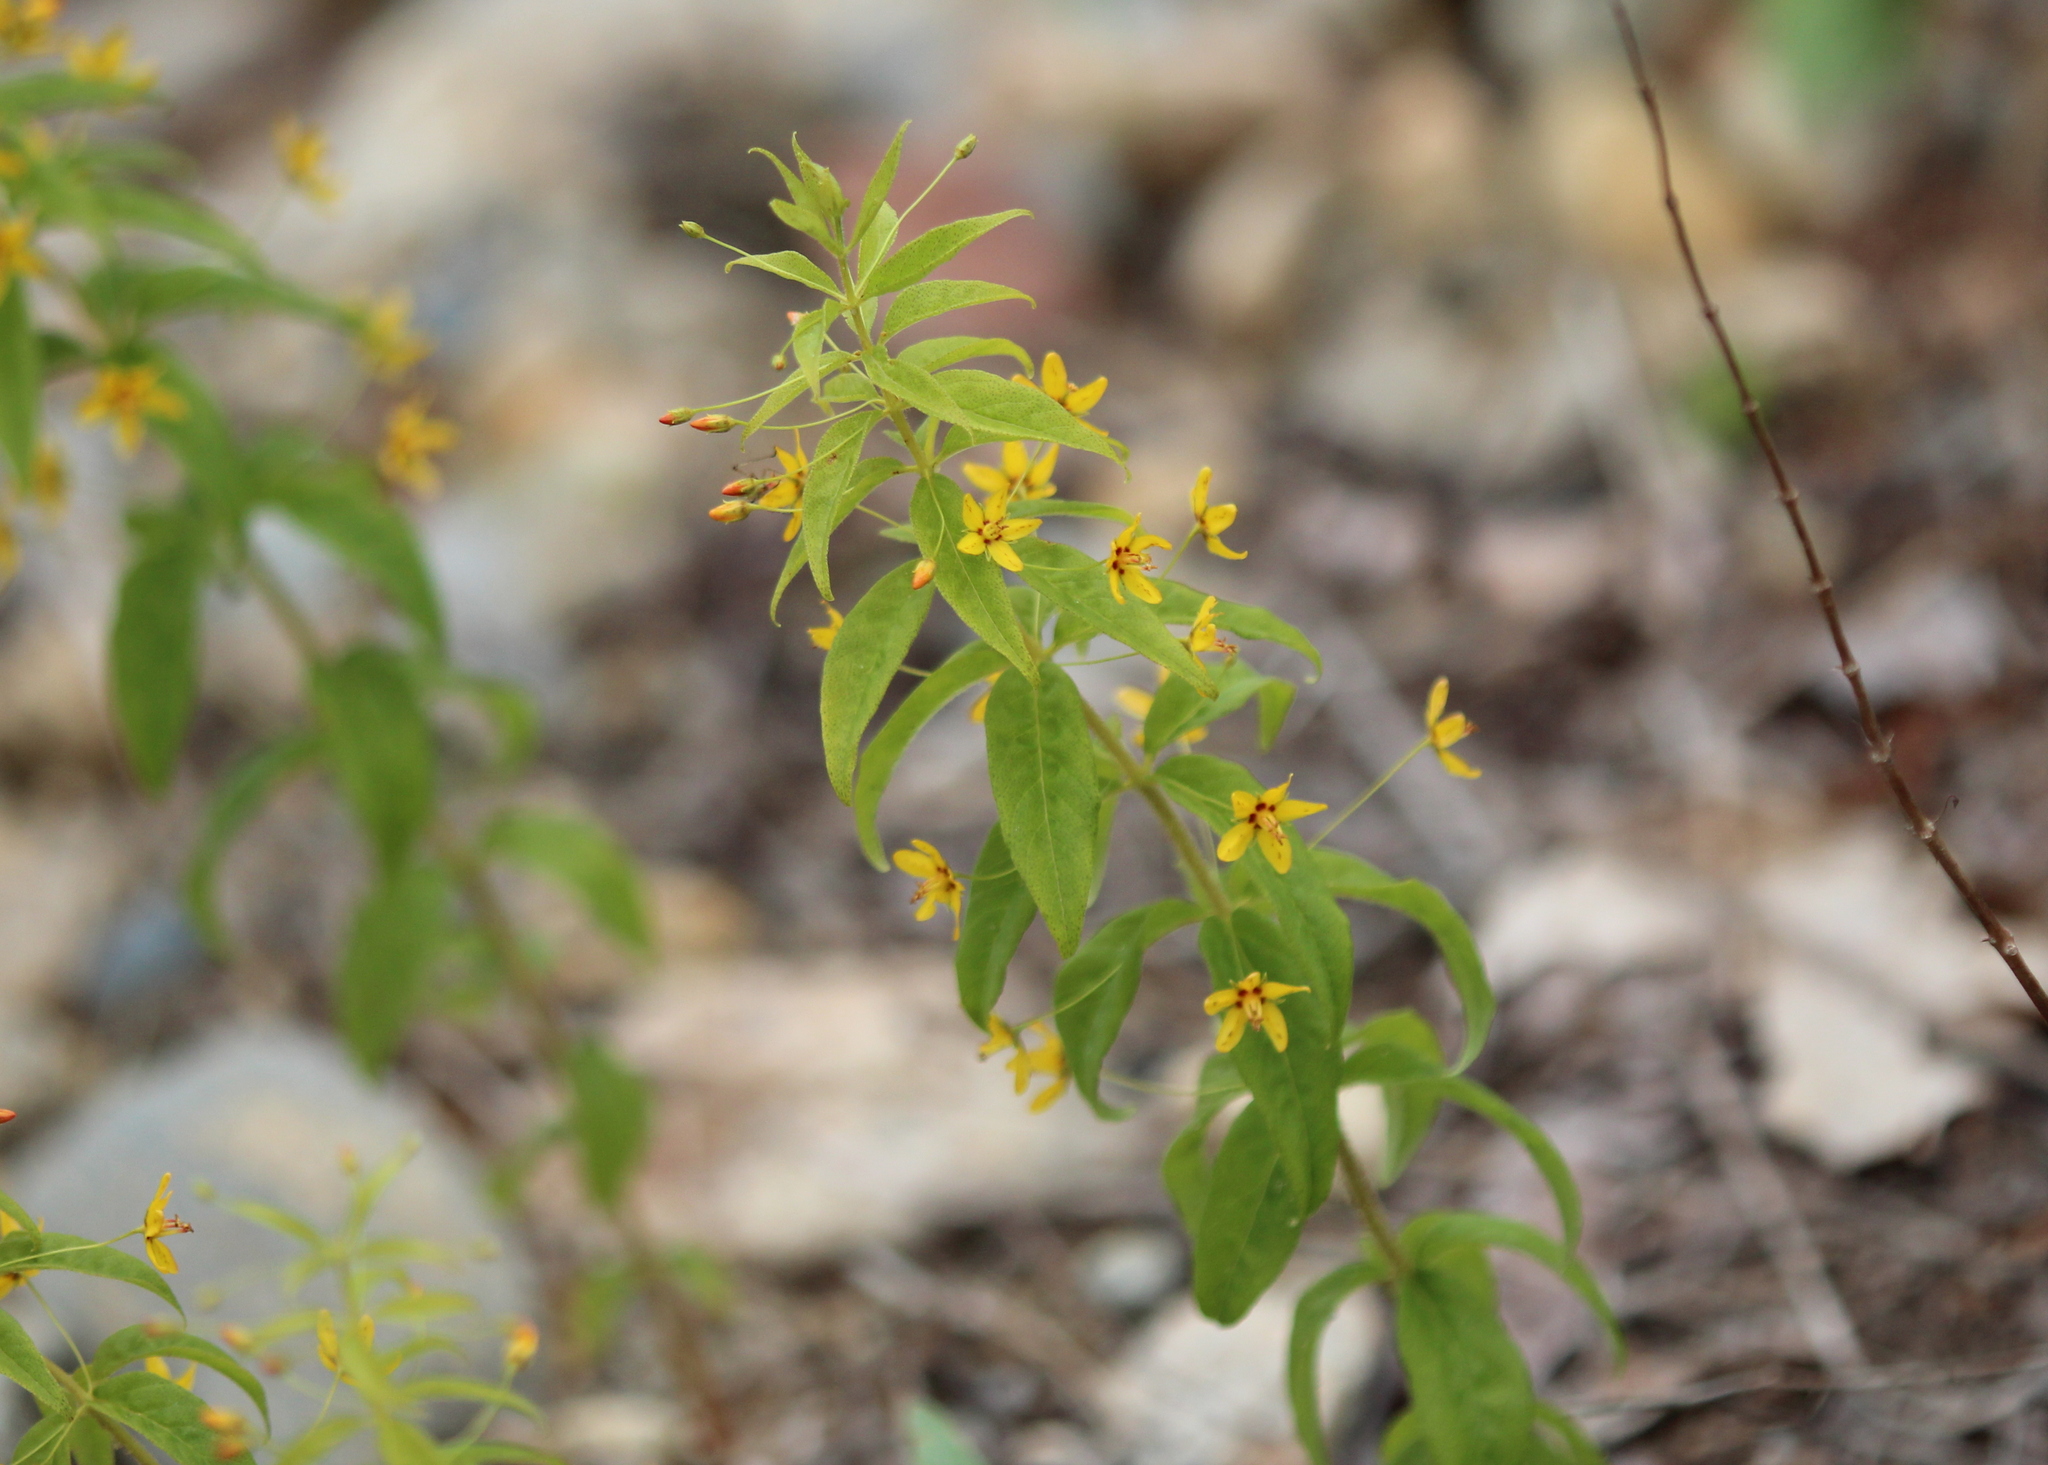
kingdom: Plantae
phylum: Tracheophyta
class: Magnoliopsida
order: Ericales
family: Primulaceae
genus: Lysimachia
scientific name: Lysimachia quadrifolia
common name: Whorled loosestrife
